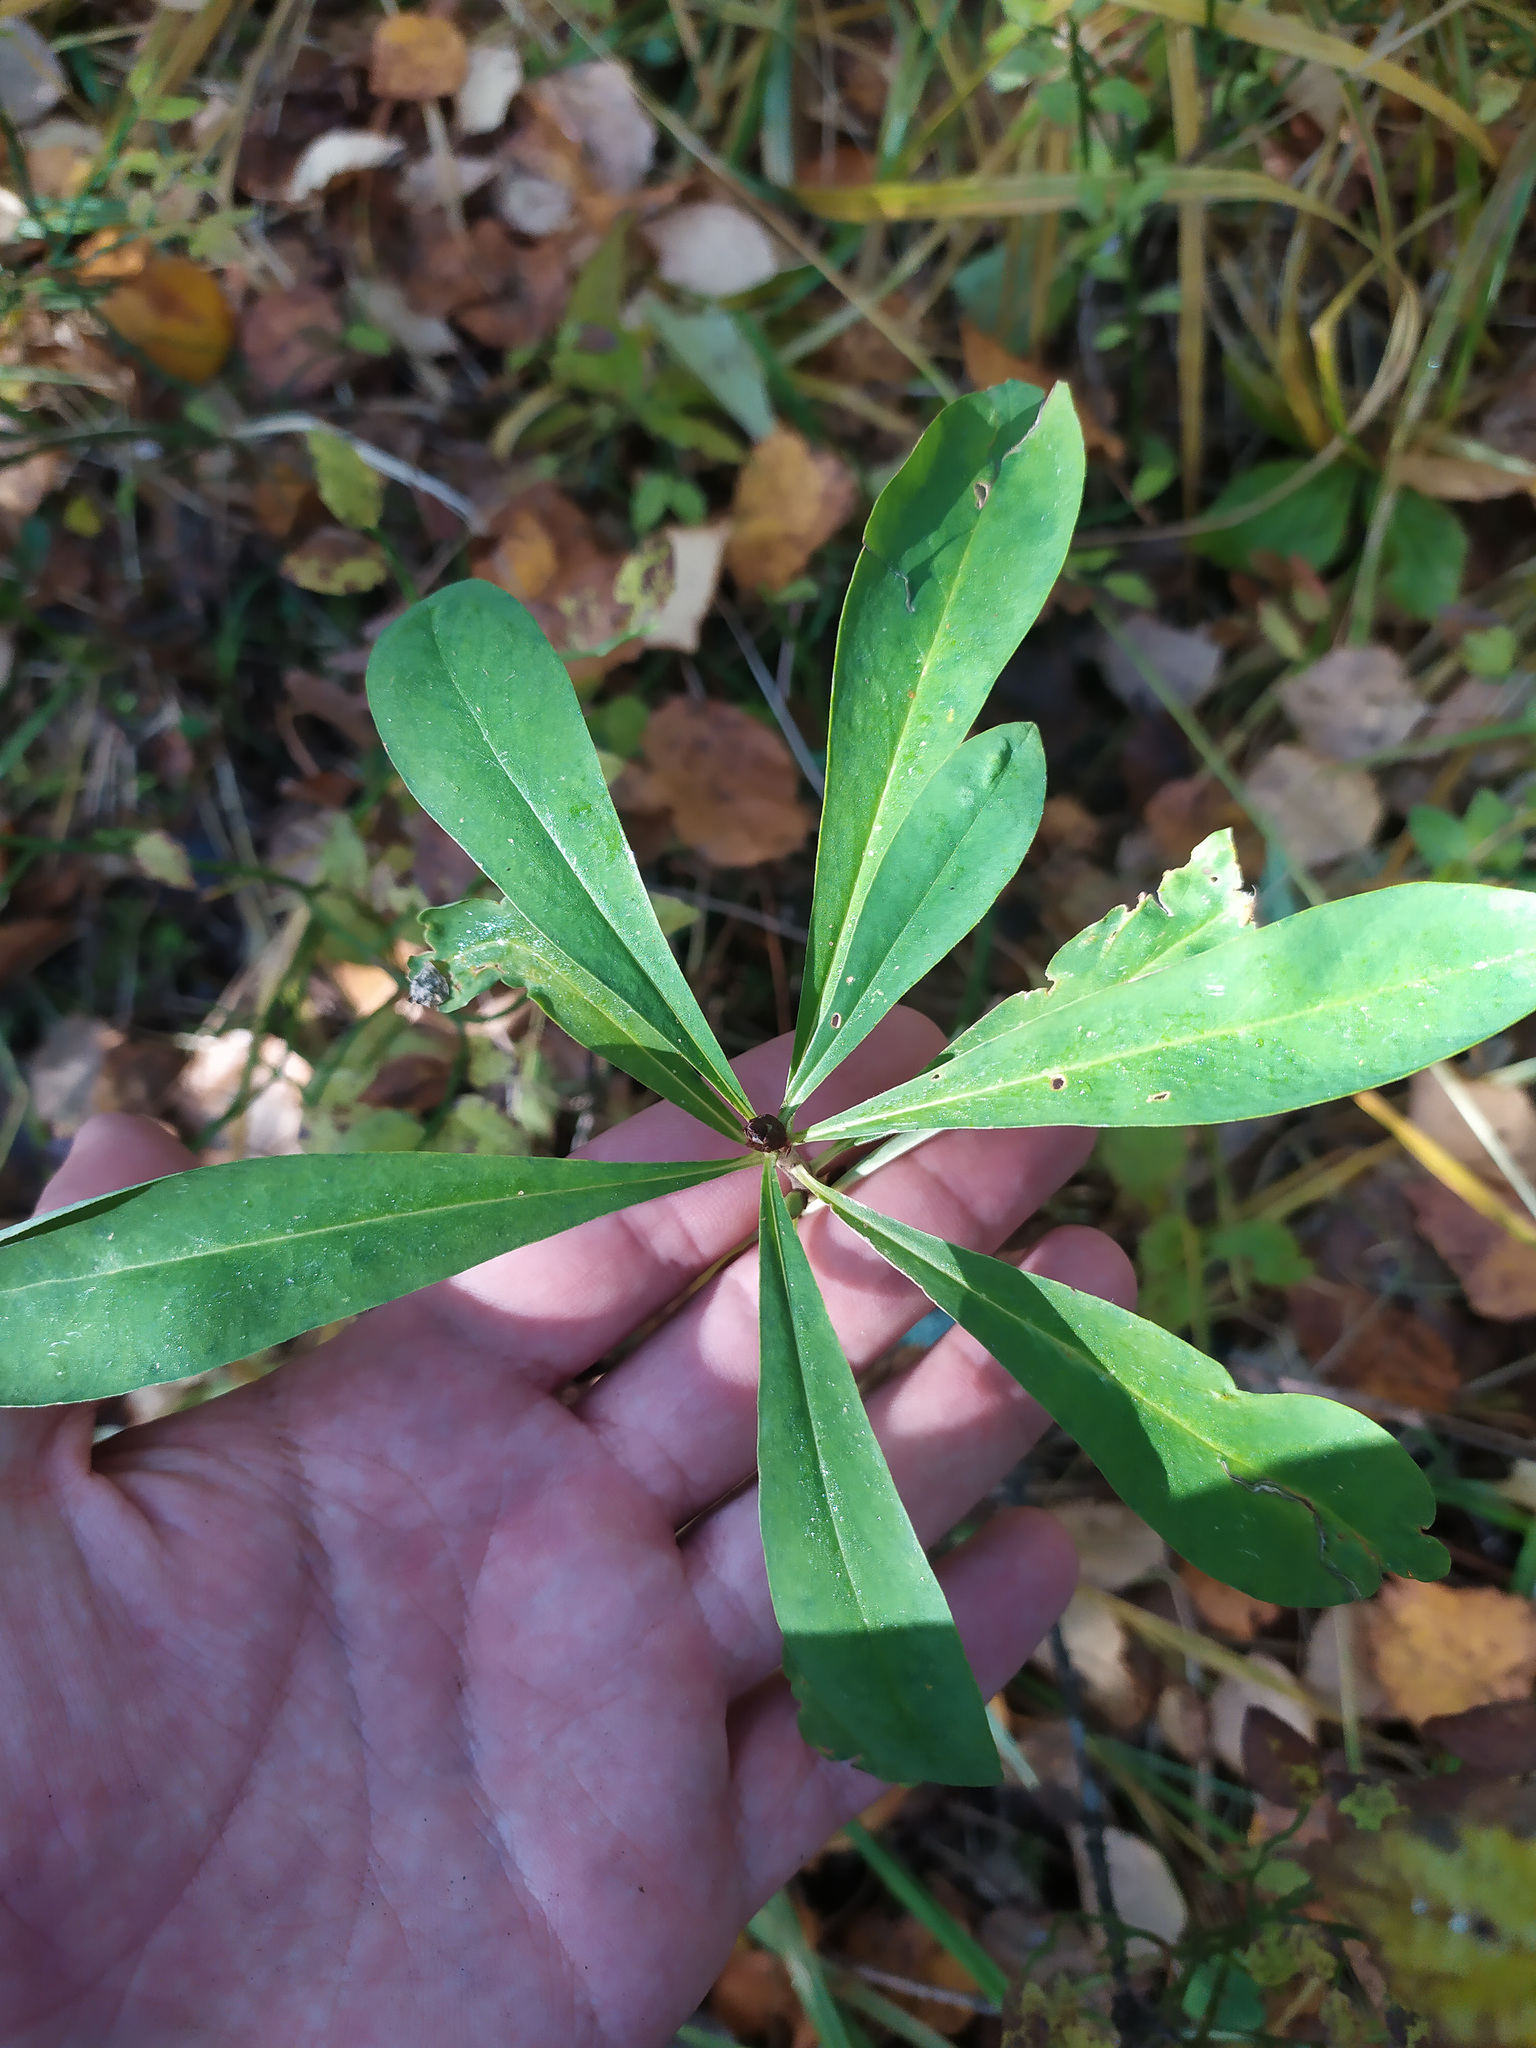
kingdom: Plantae
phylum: Tracheophyta
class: Magnoliopsida
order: Malvales
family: Thymelaeaceae
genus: Daphne
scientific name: Daphne mezereum
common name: Mezereon
